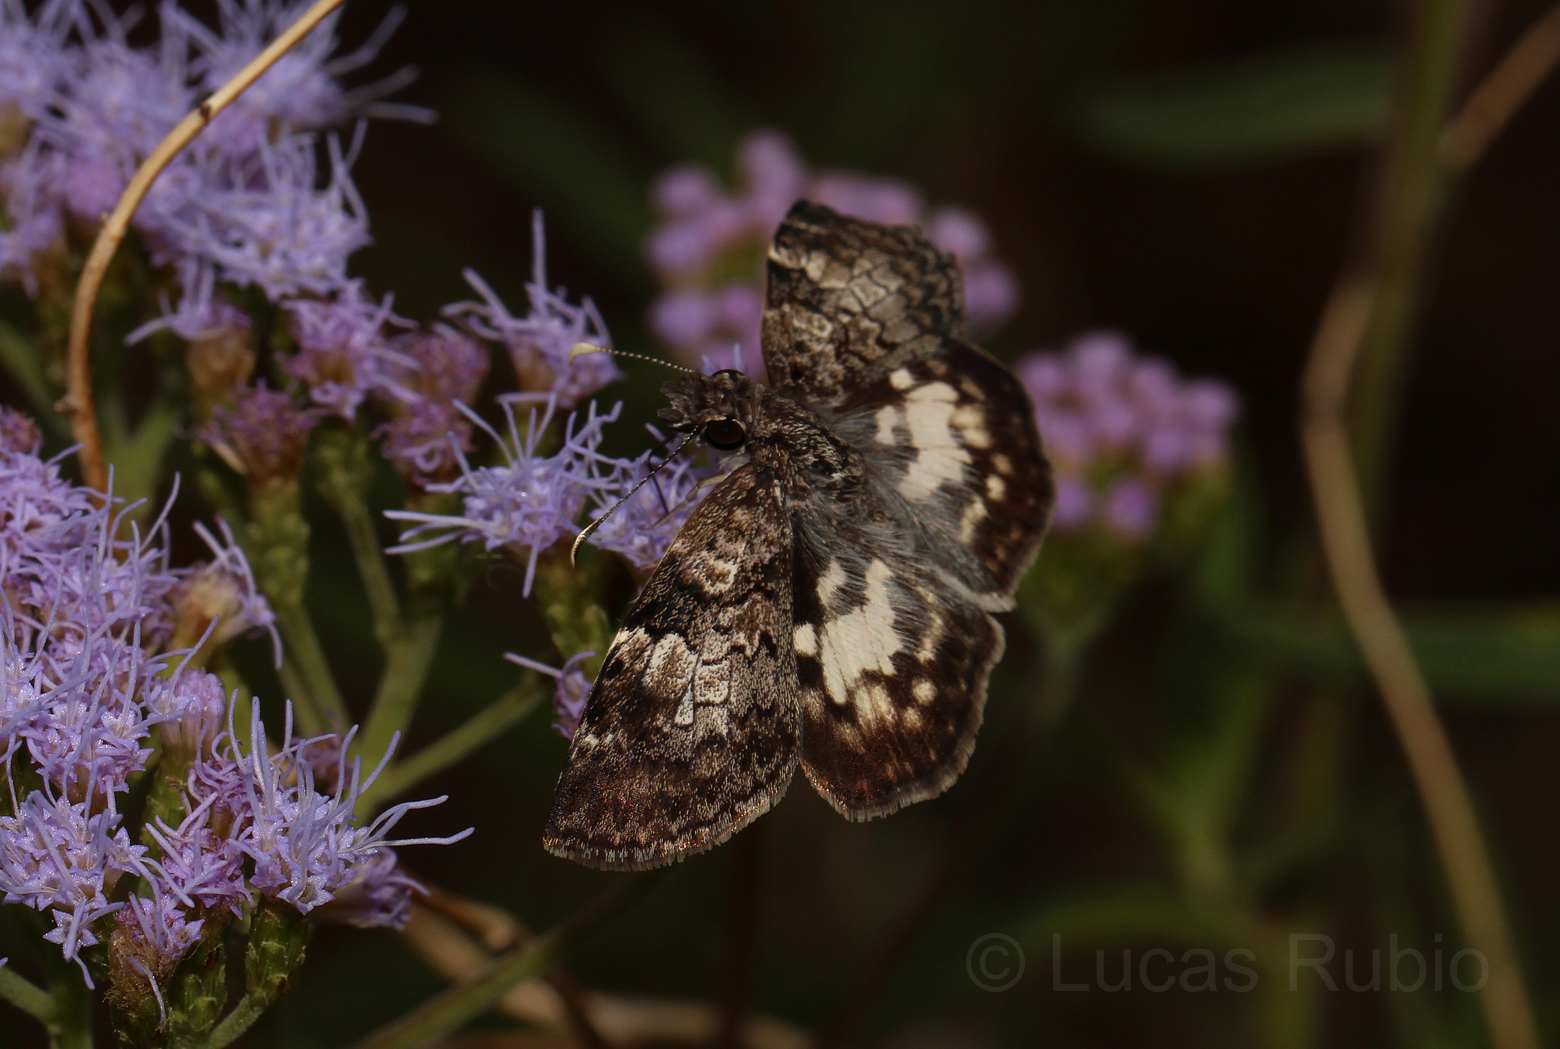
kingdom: Animalia
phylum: Arthropoda
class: Insecta
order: Lepidoptera
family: Hesperiidae
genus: Chiomara
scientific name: Chiomara asychis
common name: White-patterned skipper
